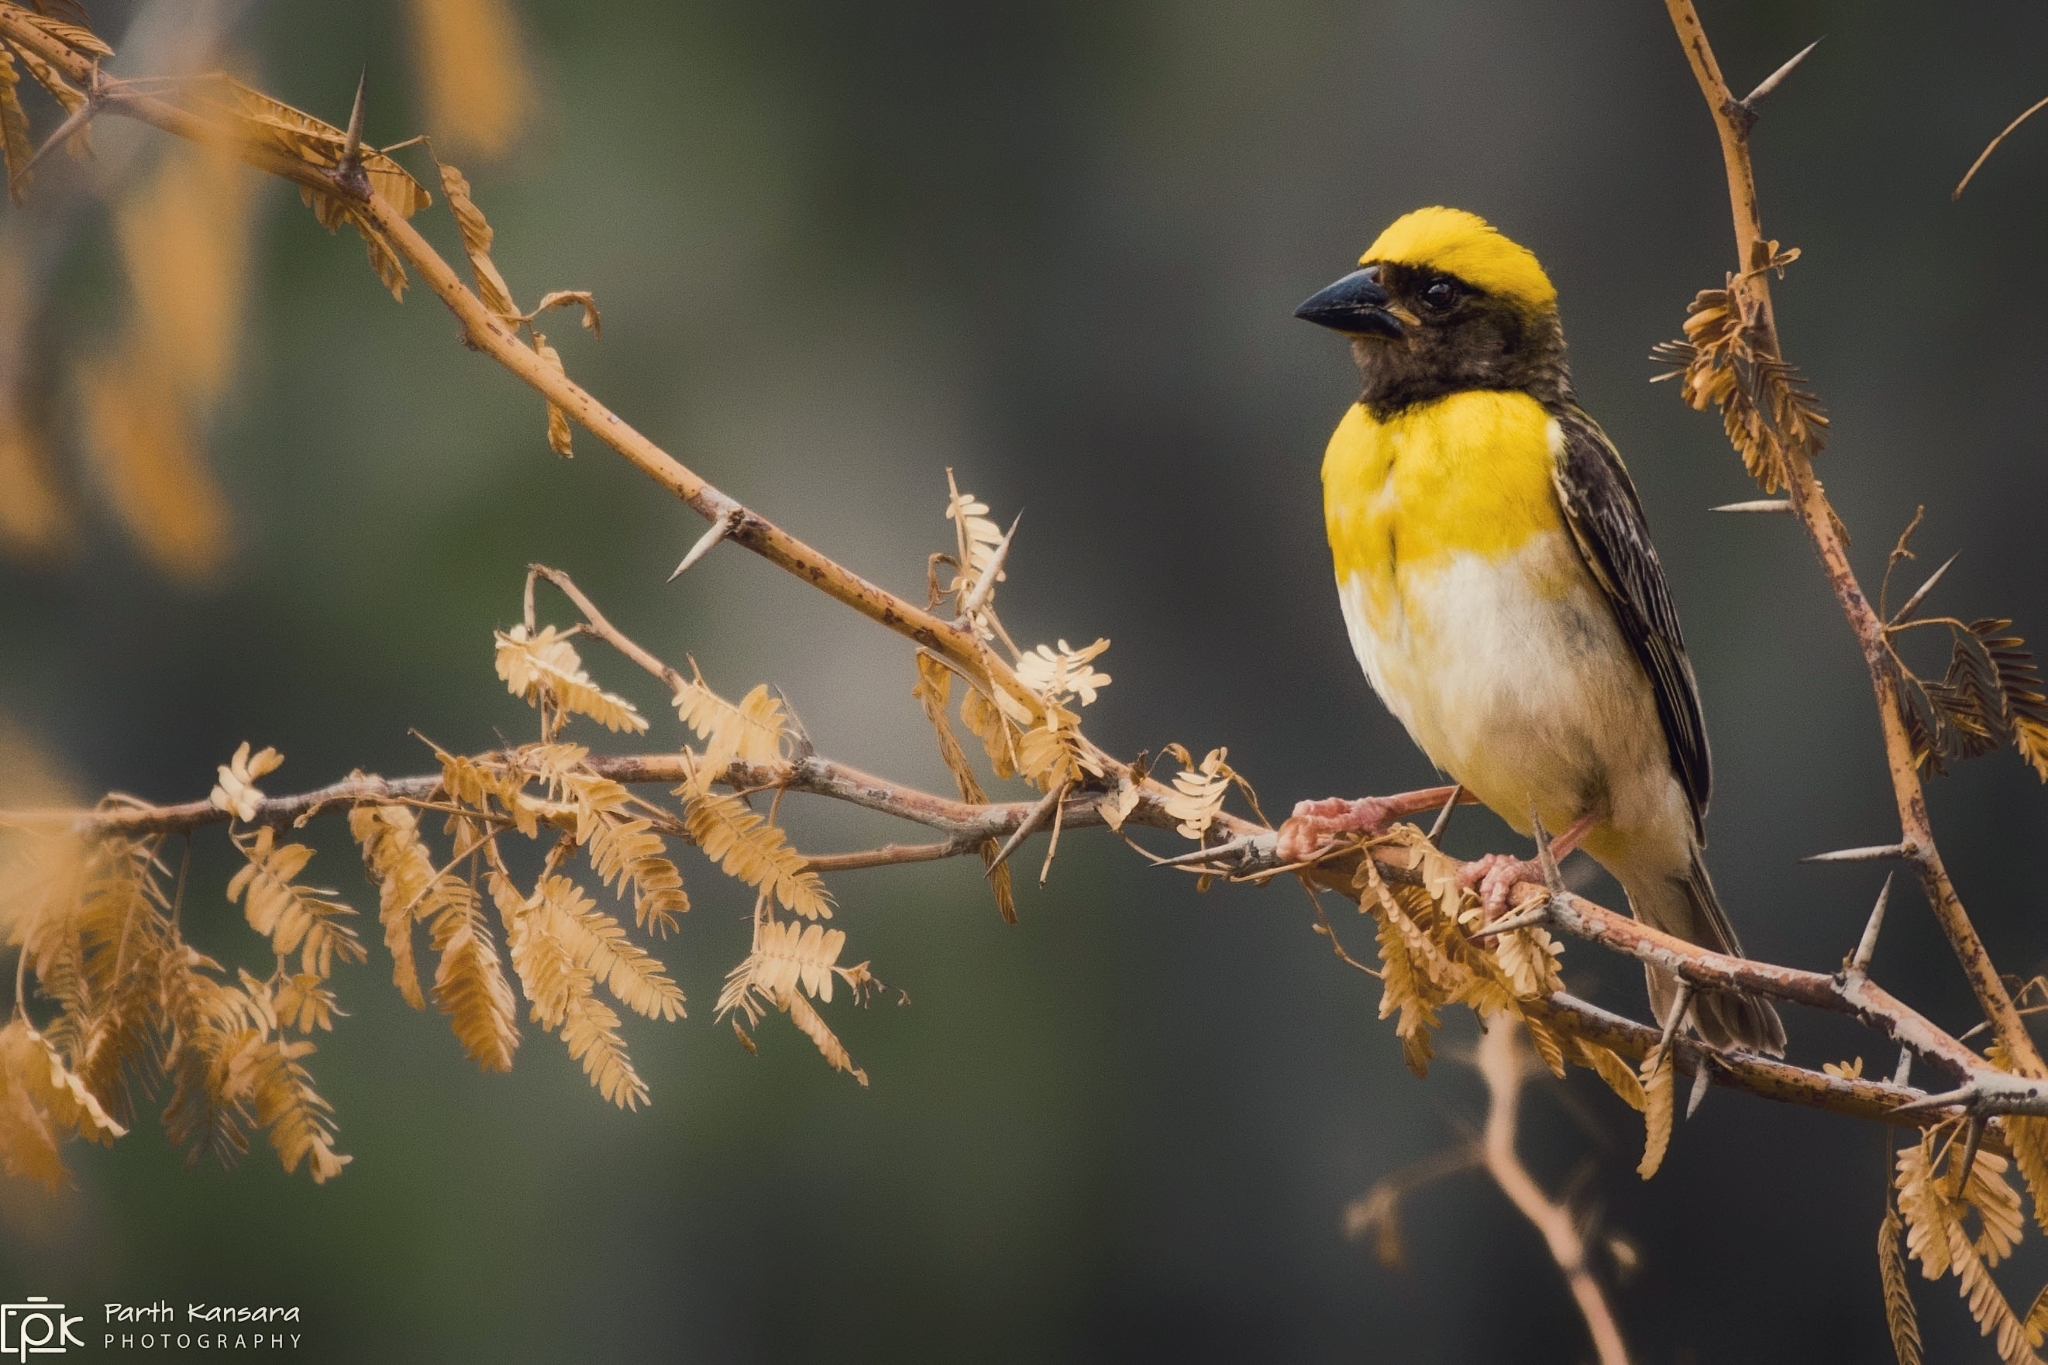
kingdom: Animalia
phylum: Chordata
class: Aves
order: Passeriformes
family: Ploceidae
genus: Ploceus
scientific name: Ploceus philippinus
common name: Baya weaver
